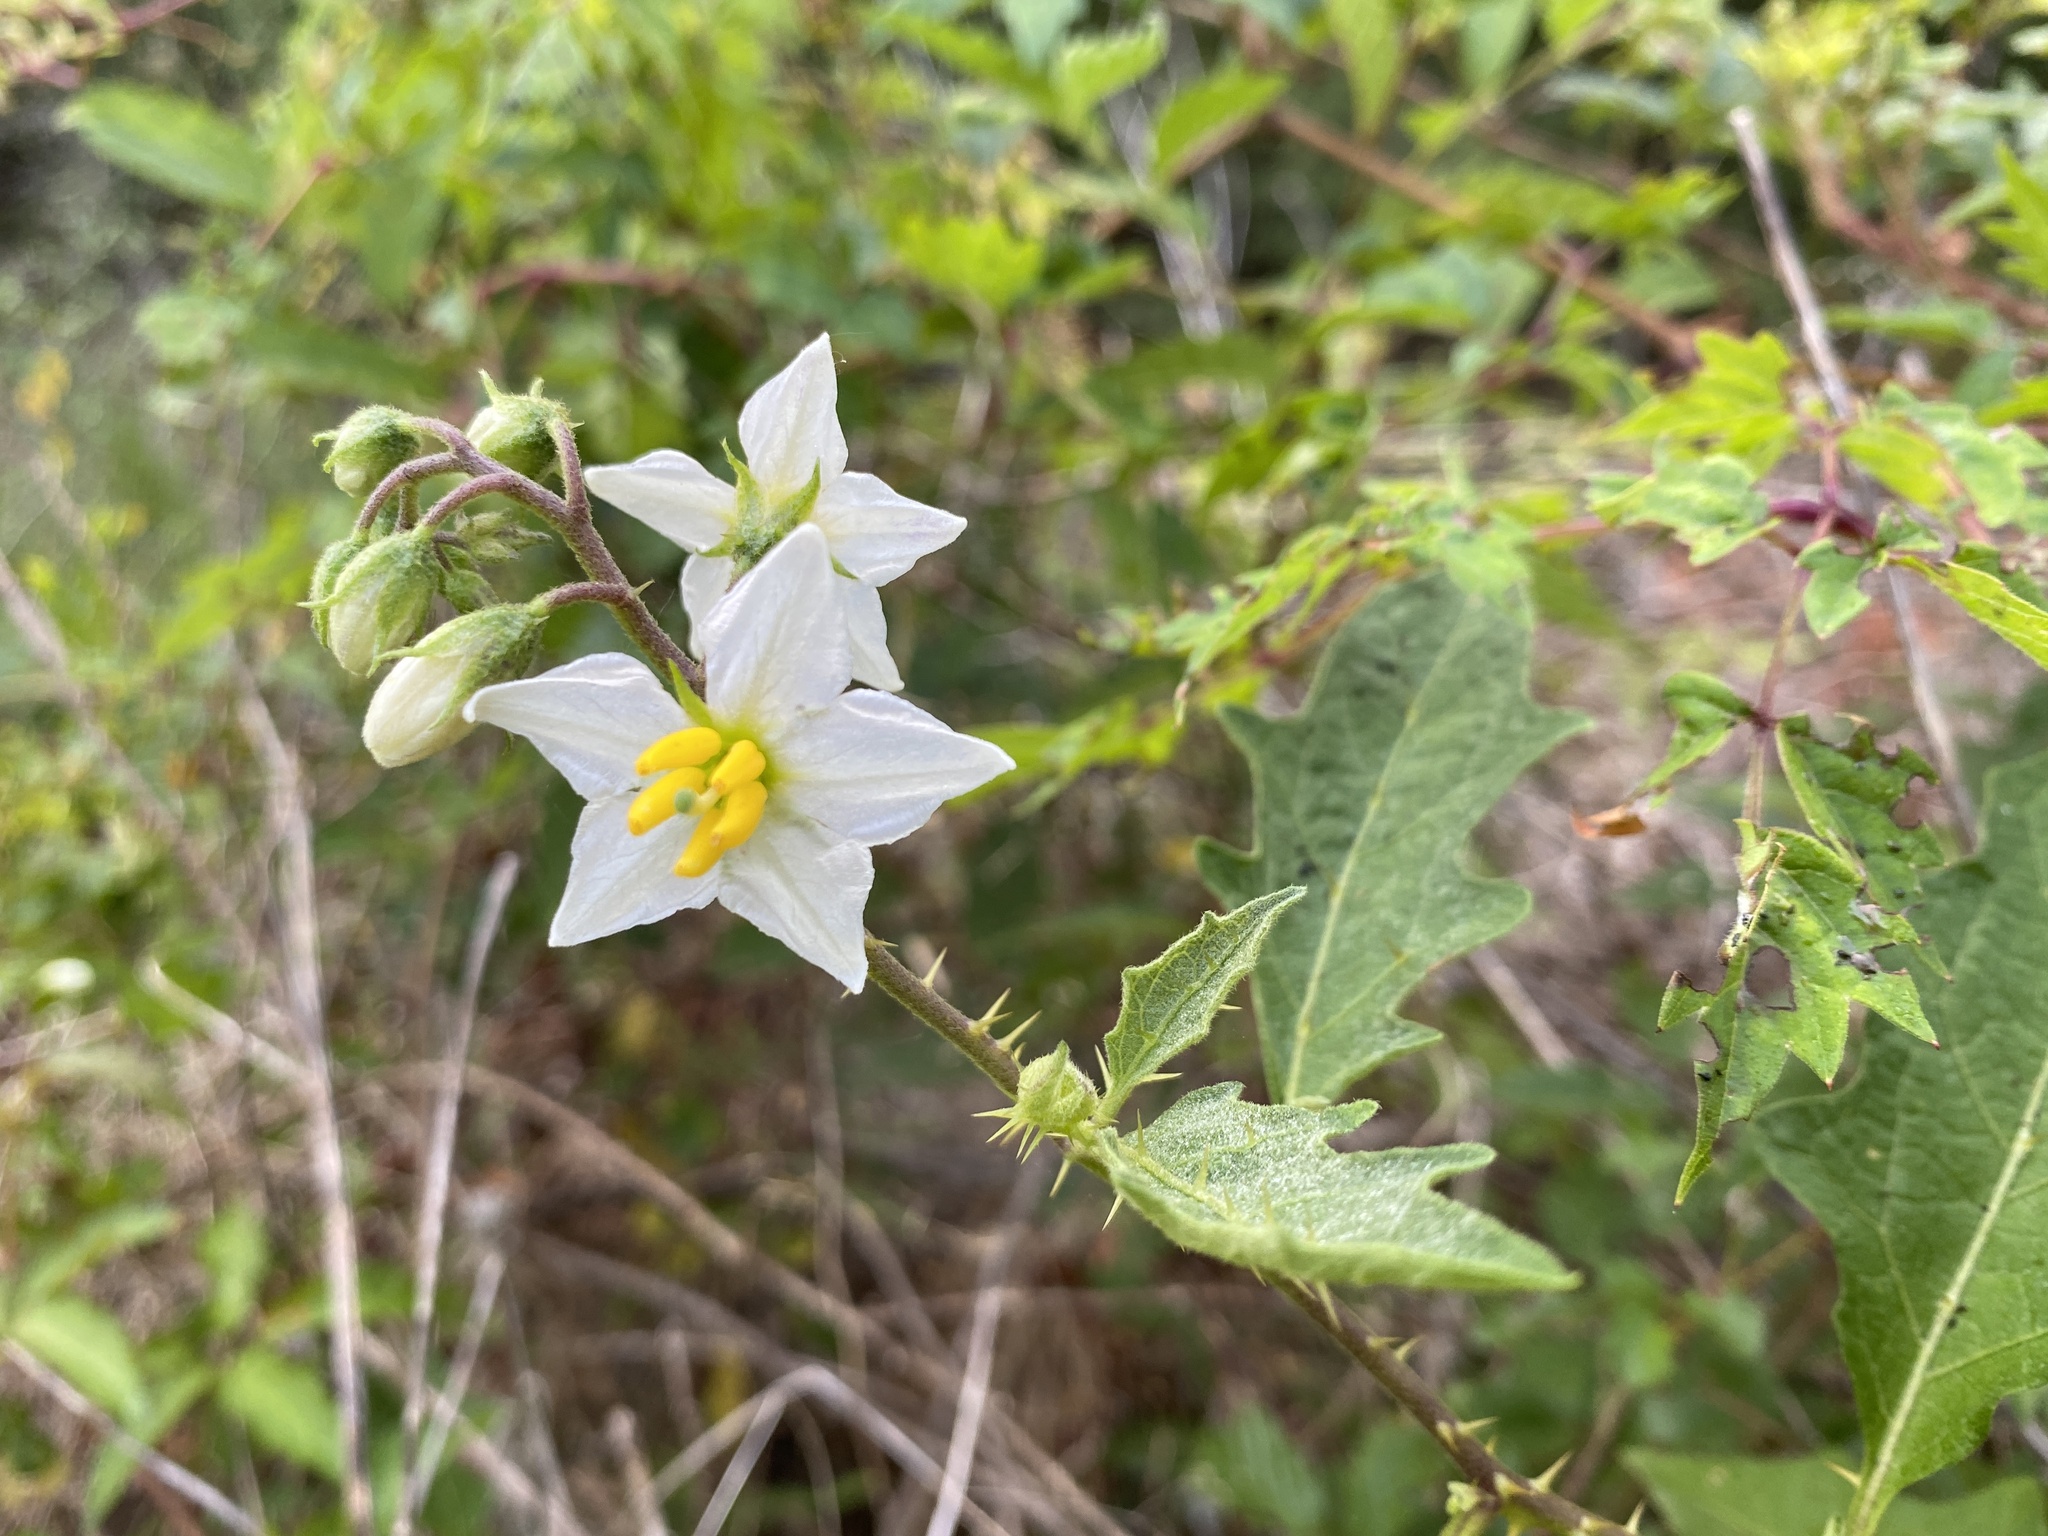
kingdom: Plantae
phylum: Tracheophyta
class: Magnoliopsida
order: Solanales
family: Solanaceae
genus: Solanum
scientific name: Solanum carolinense
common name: Horse-nettle
